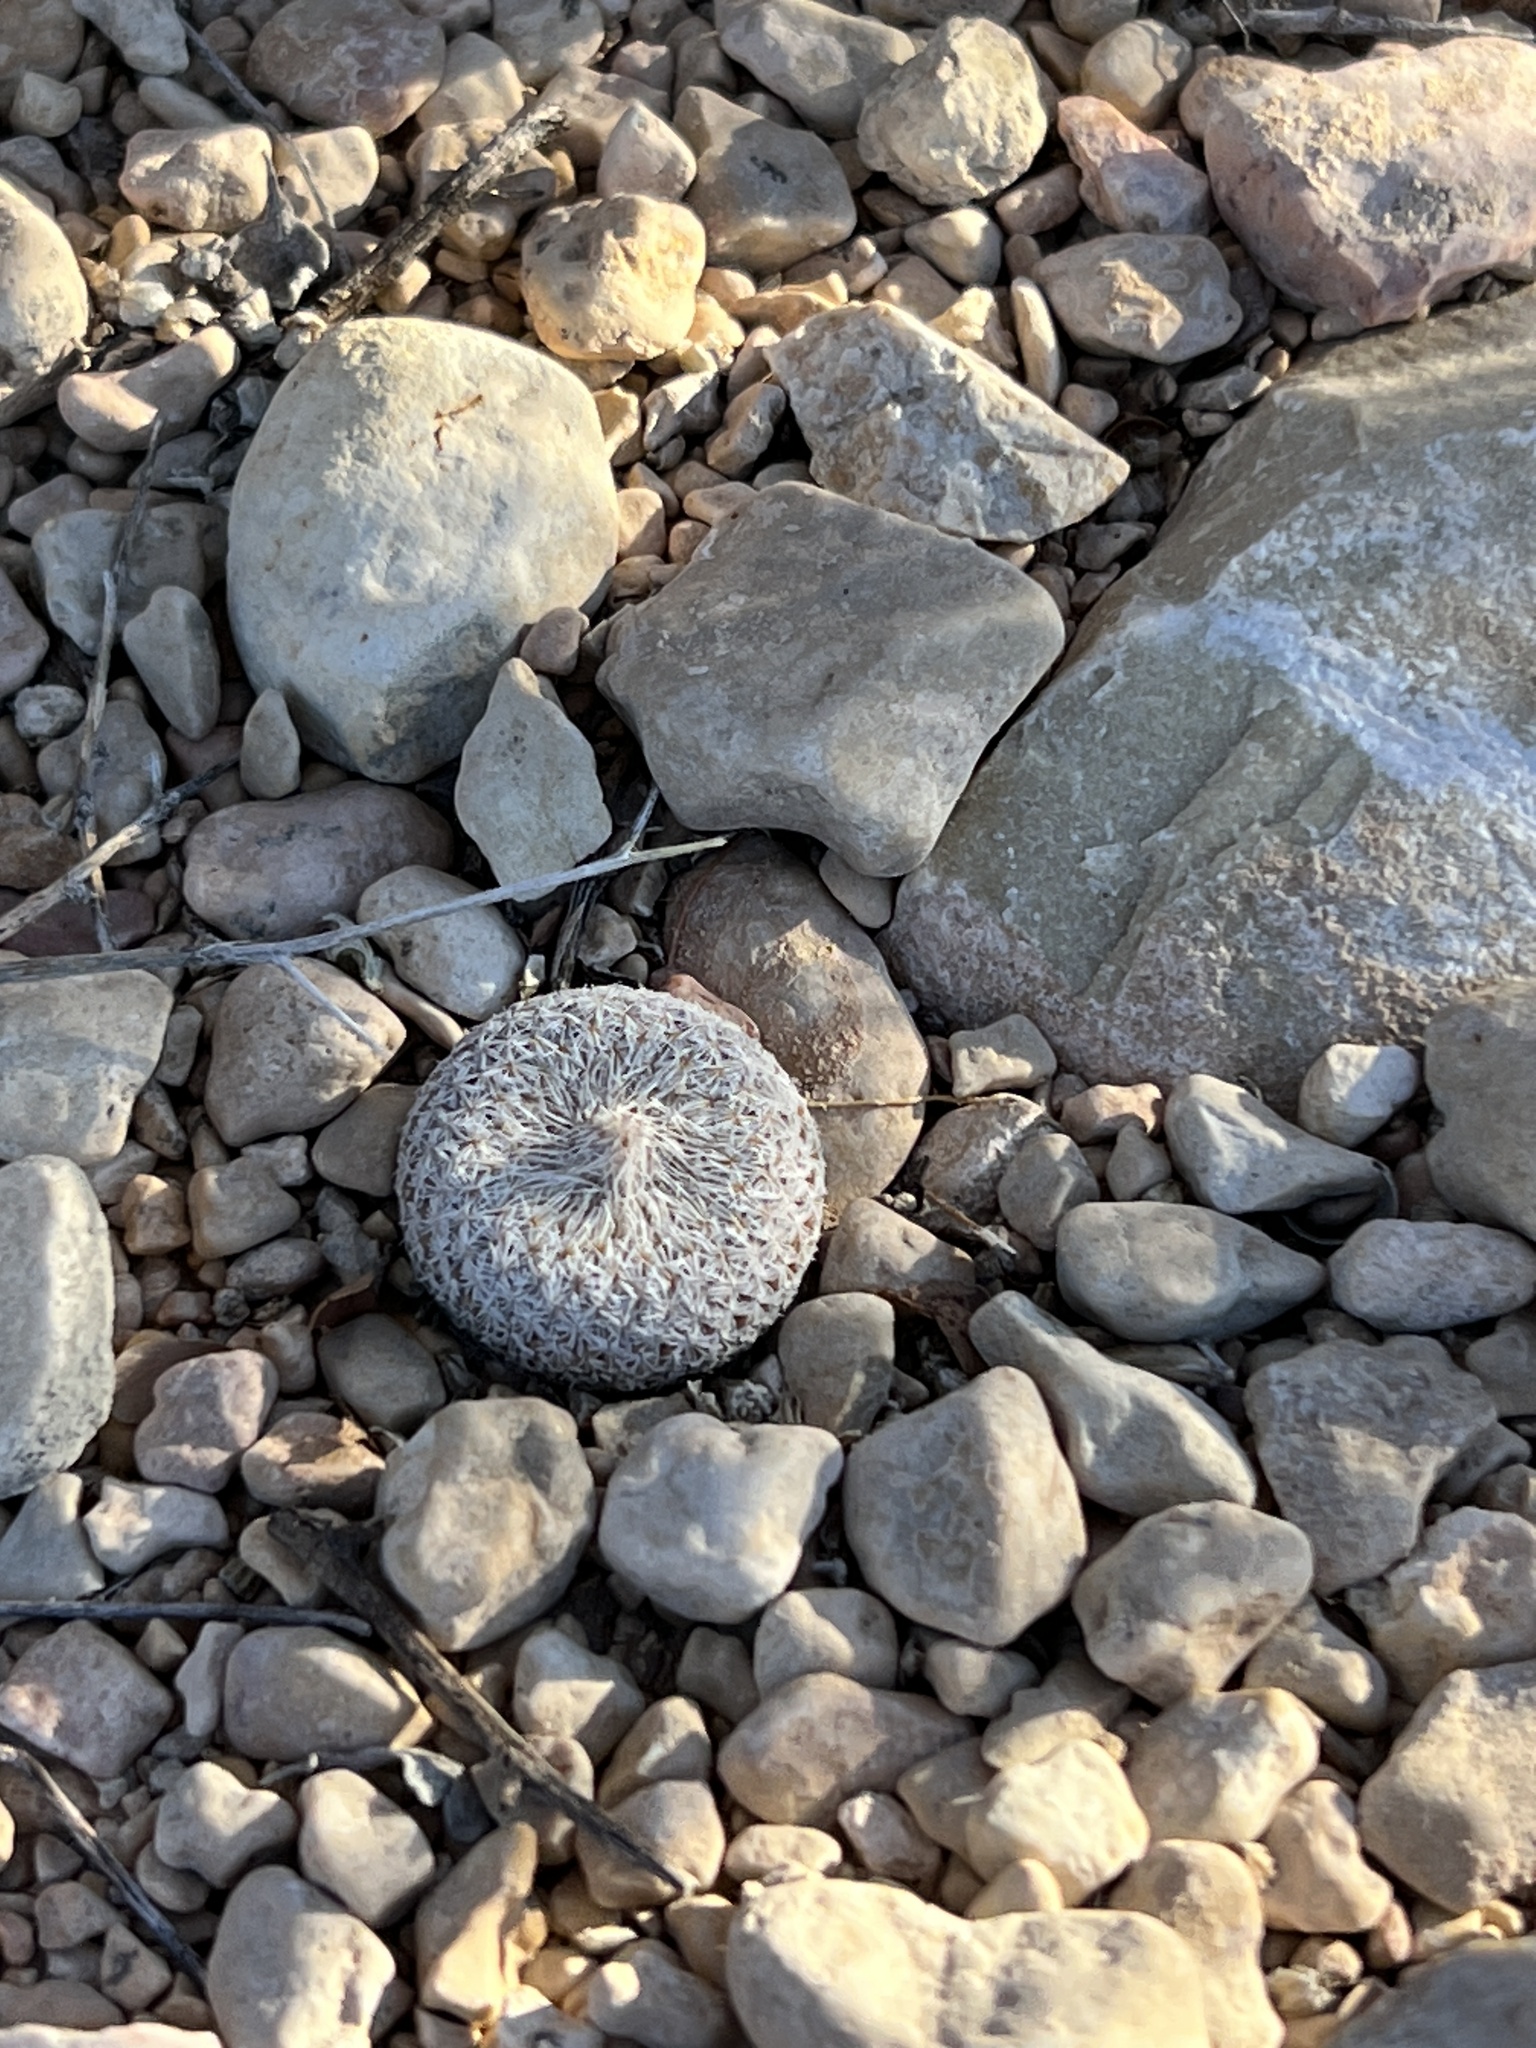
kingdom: Plantae
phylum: Tracheophyta
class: Magnoliopsida
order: Caryophyllales
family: Cactaceae
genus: Epithelantha
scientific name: Epithelantha micromeris
